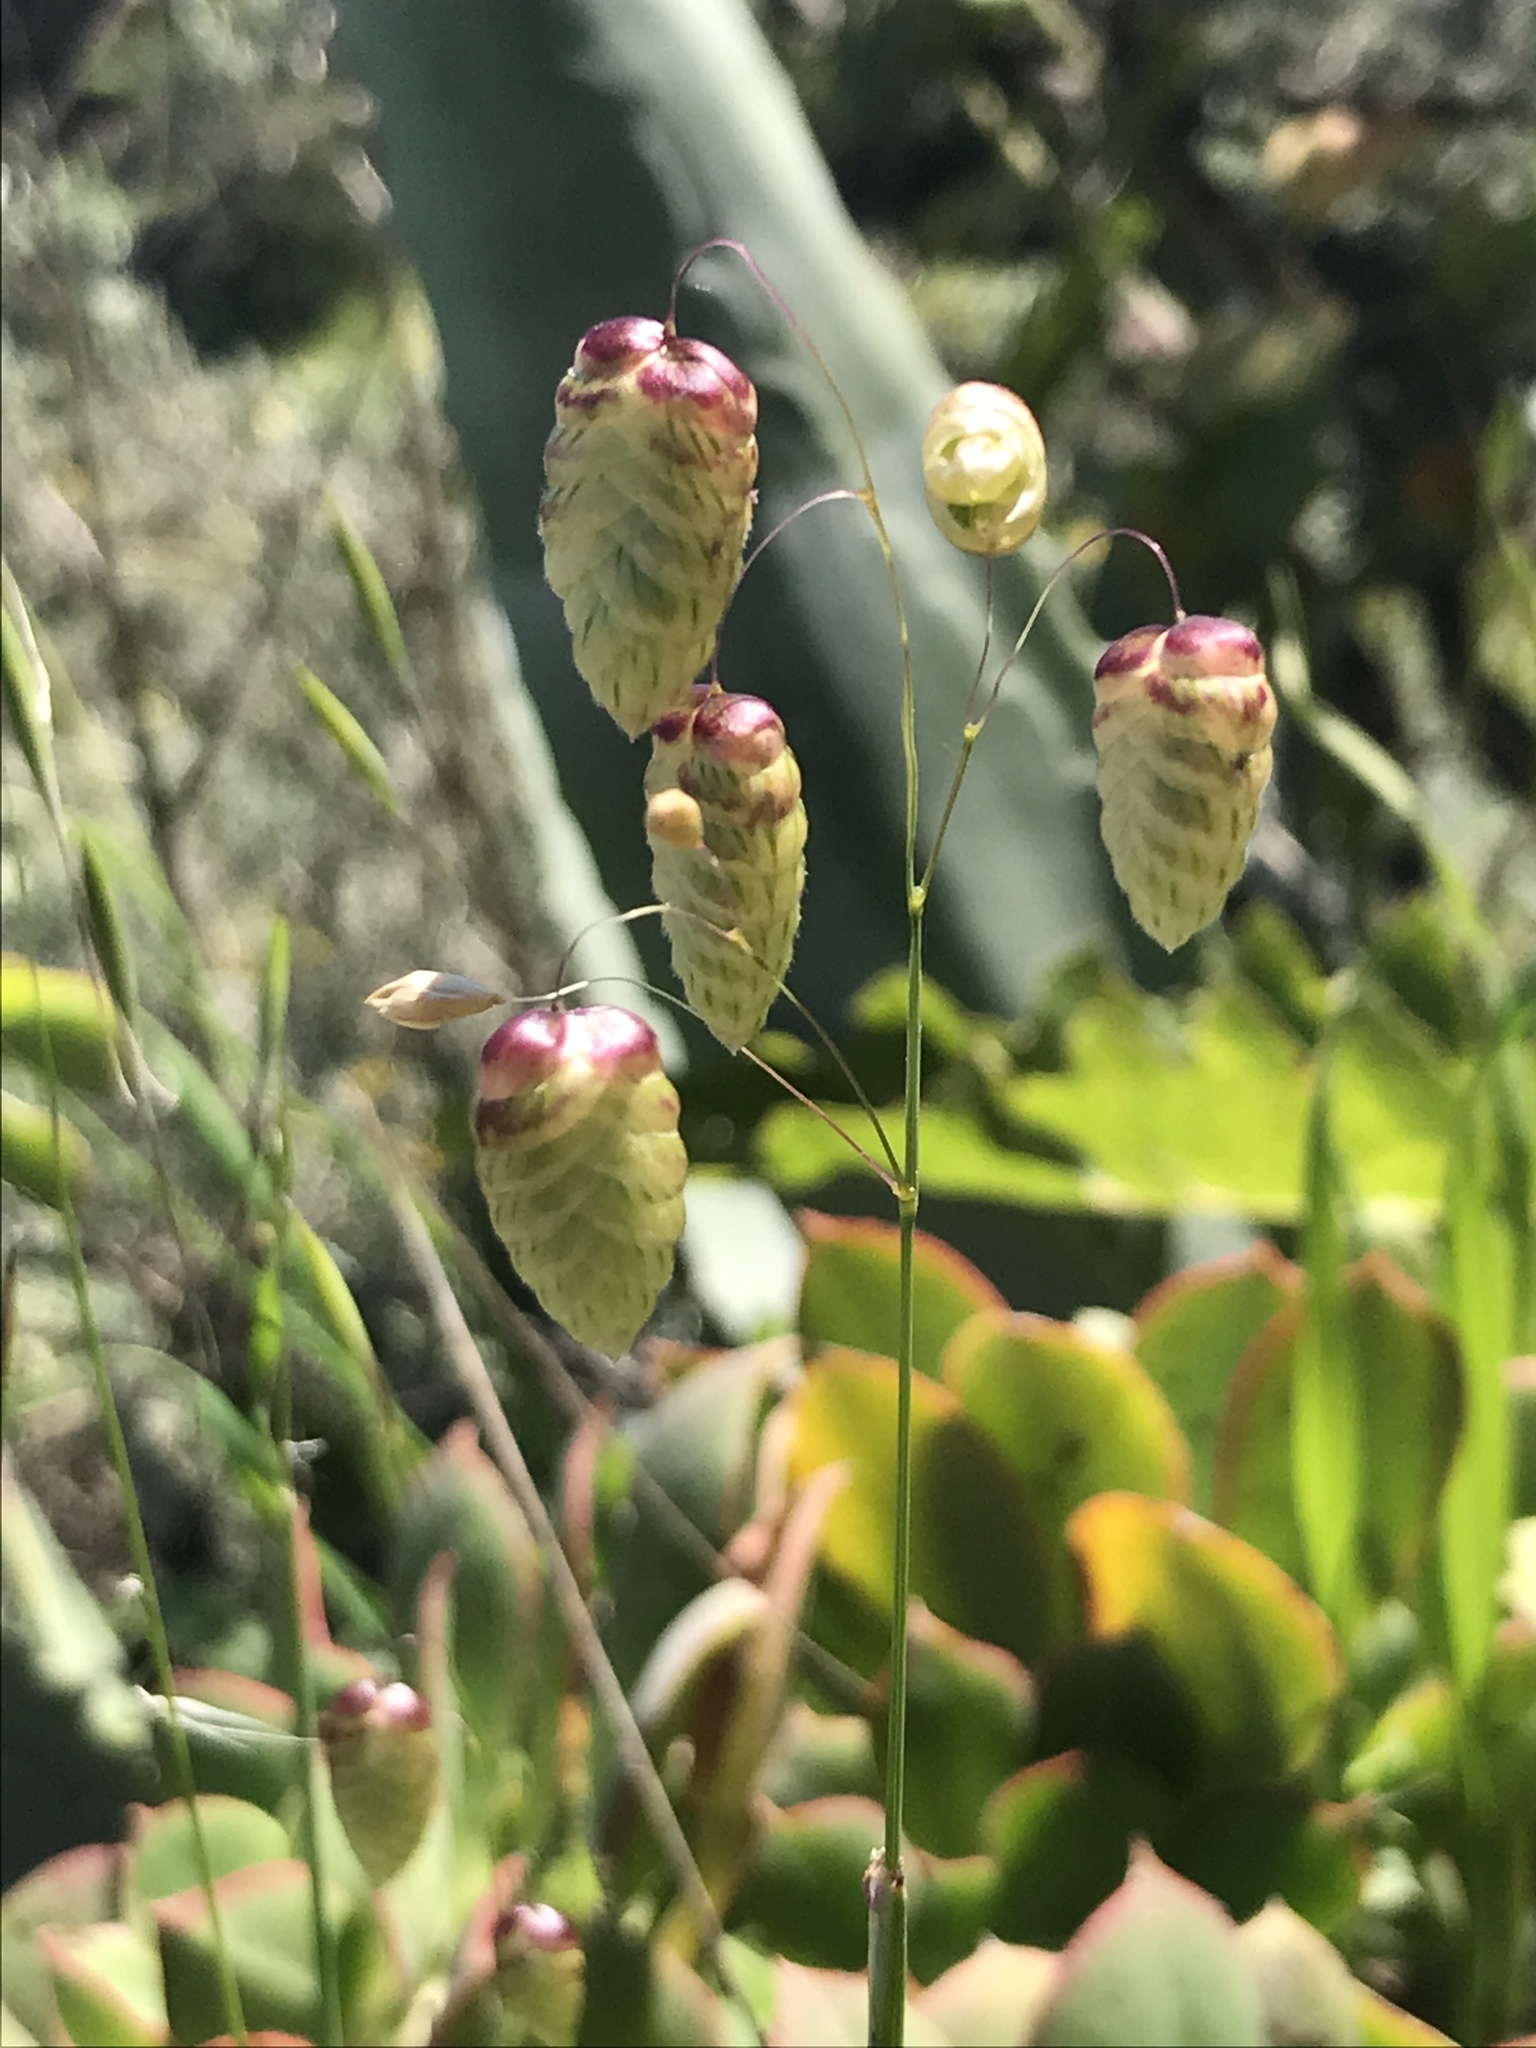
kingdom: Plantae
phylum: Tracheophyta
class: Liliopsida
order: Poales
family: Poaceae
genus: Briza
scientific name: Briza maxima
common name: Big quakinggrass
